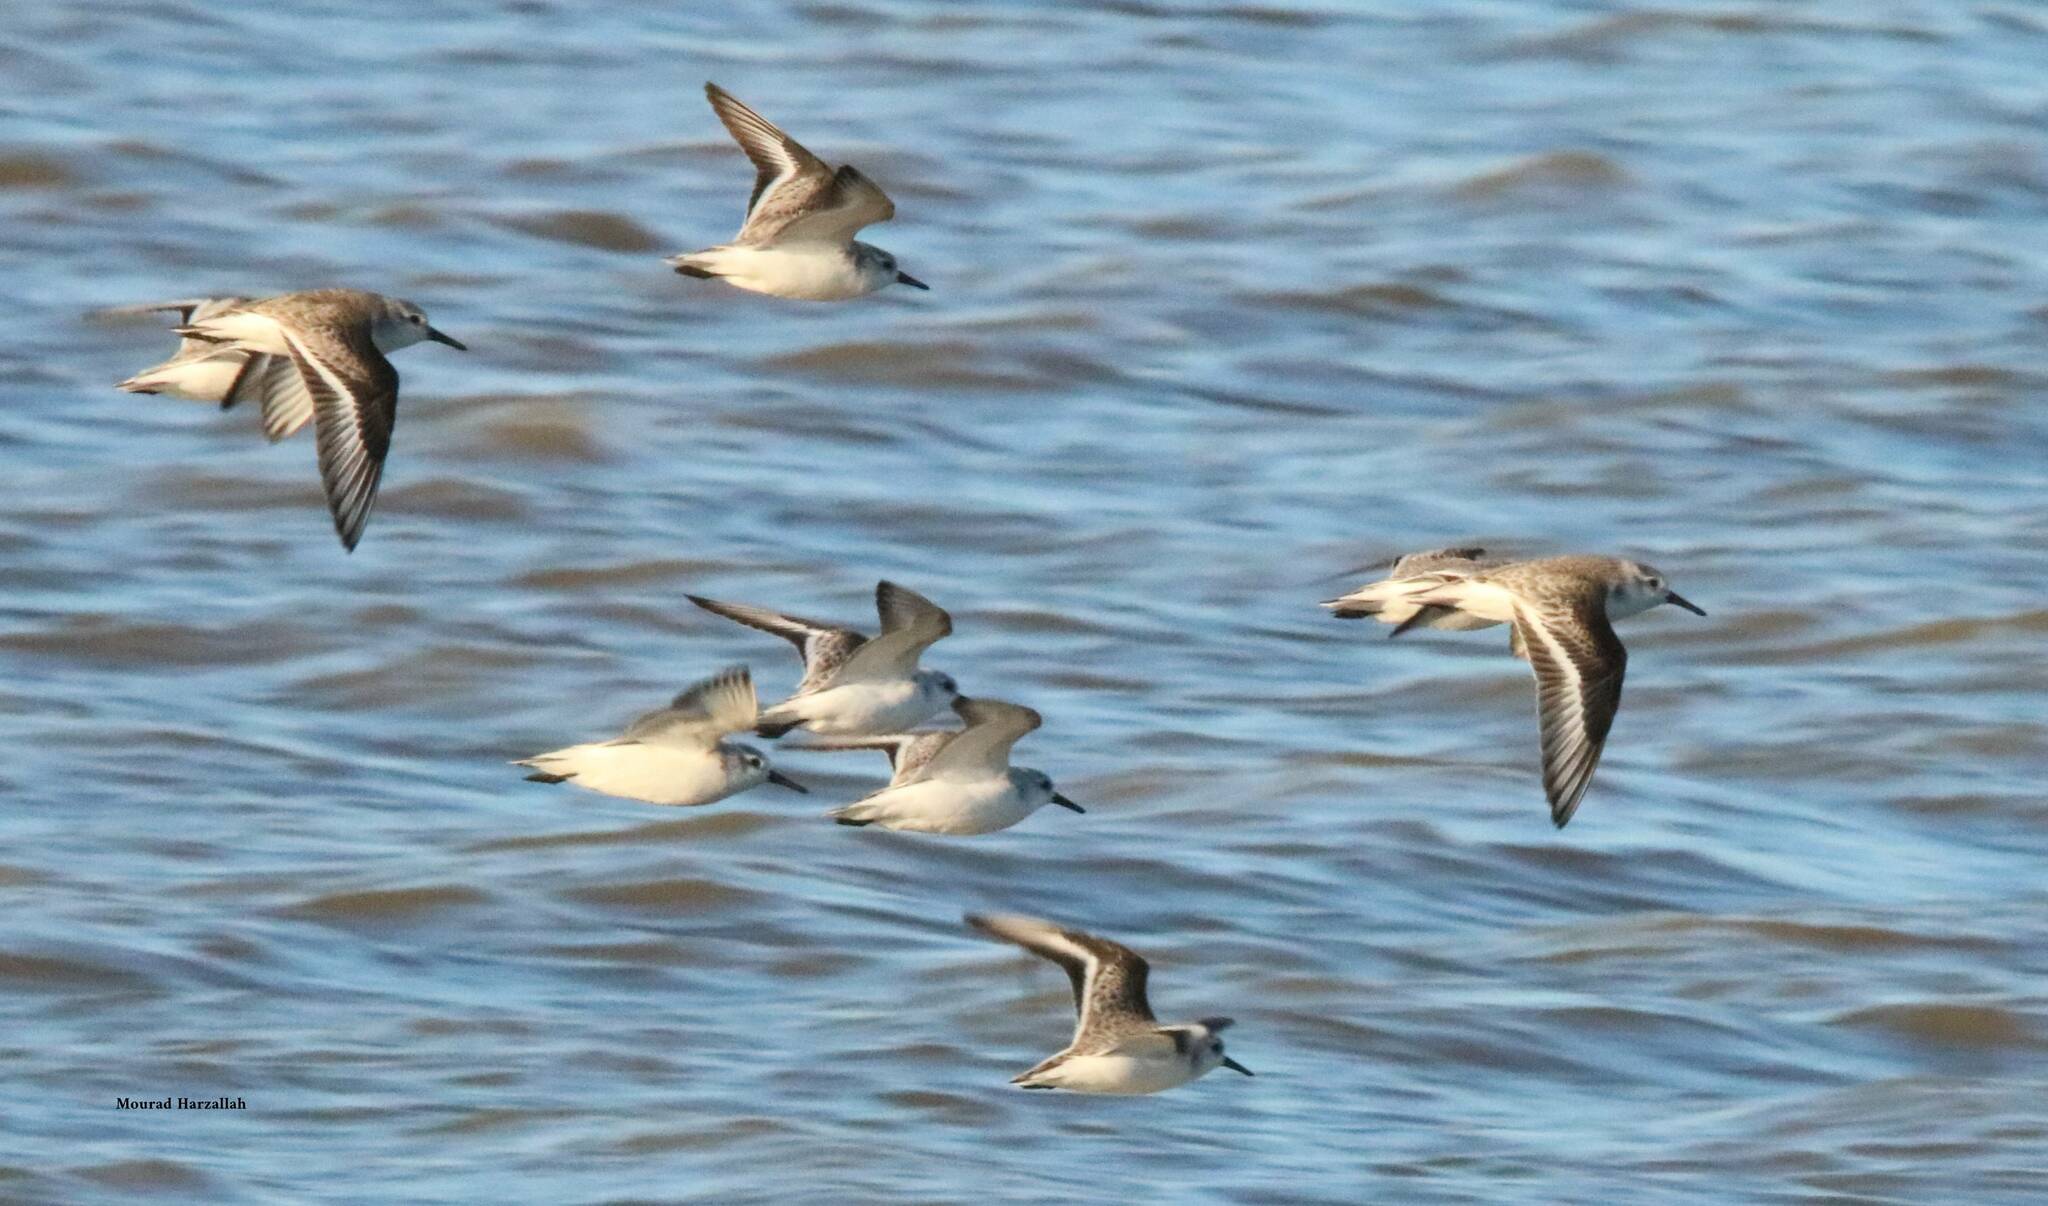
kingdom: Animalia
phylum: Chordata
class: Aves
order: Charadriiformes
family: Scolopacidae
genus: Calidris
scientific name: Calidris alba
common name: Sanderling
